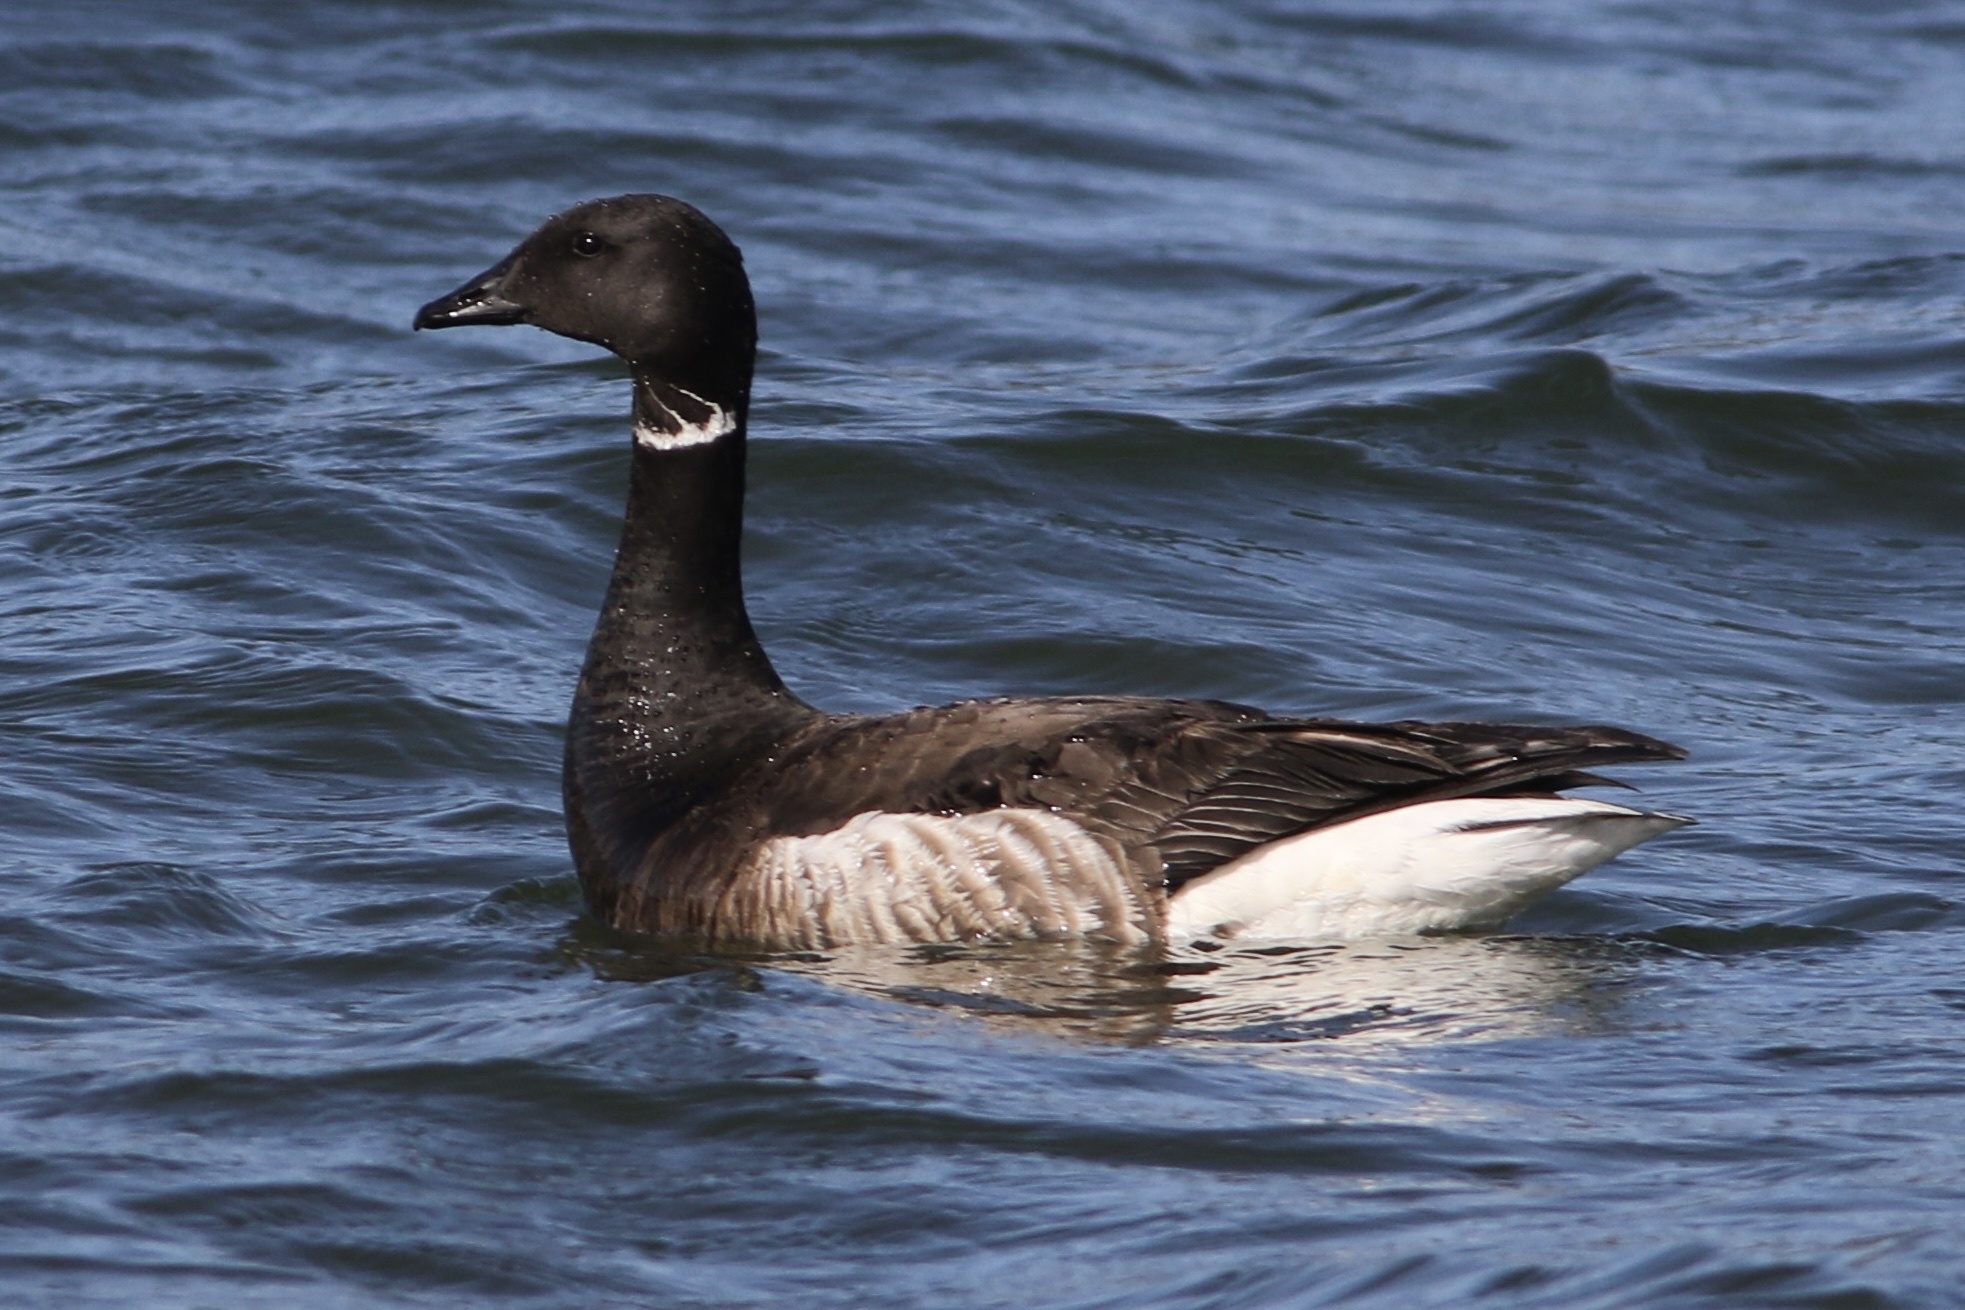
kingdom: Animalia
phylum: Chordata
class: Aves
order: Anseriformes
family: Anatidae
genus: Branta
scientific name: Branta bernicla
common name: Brant goose
